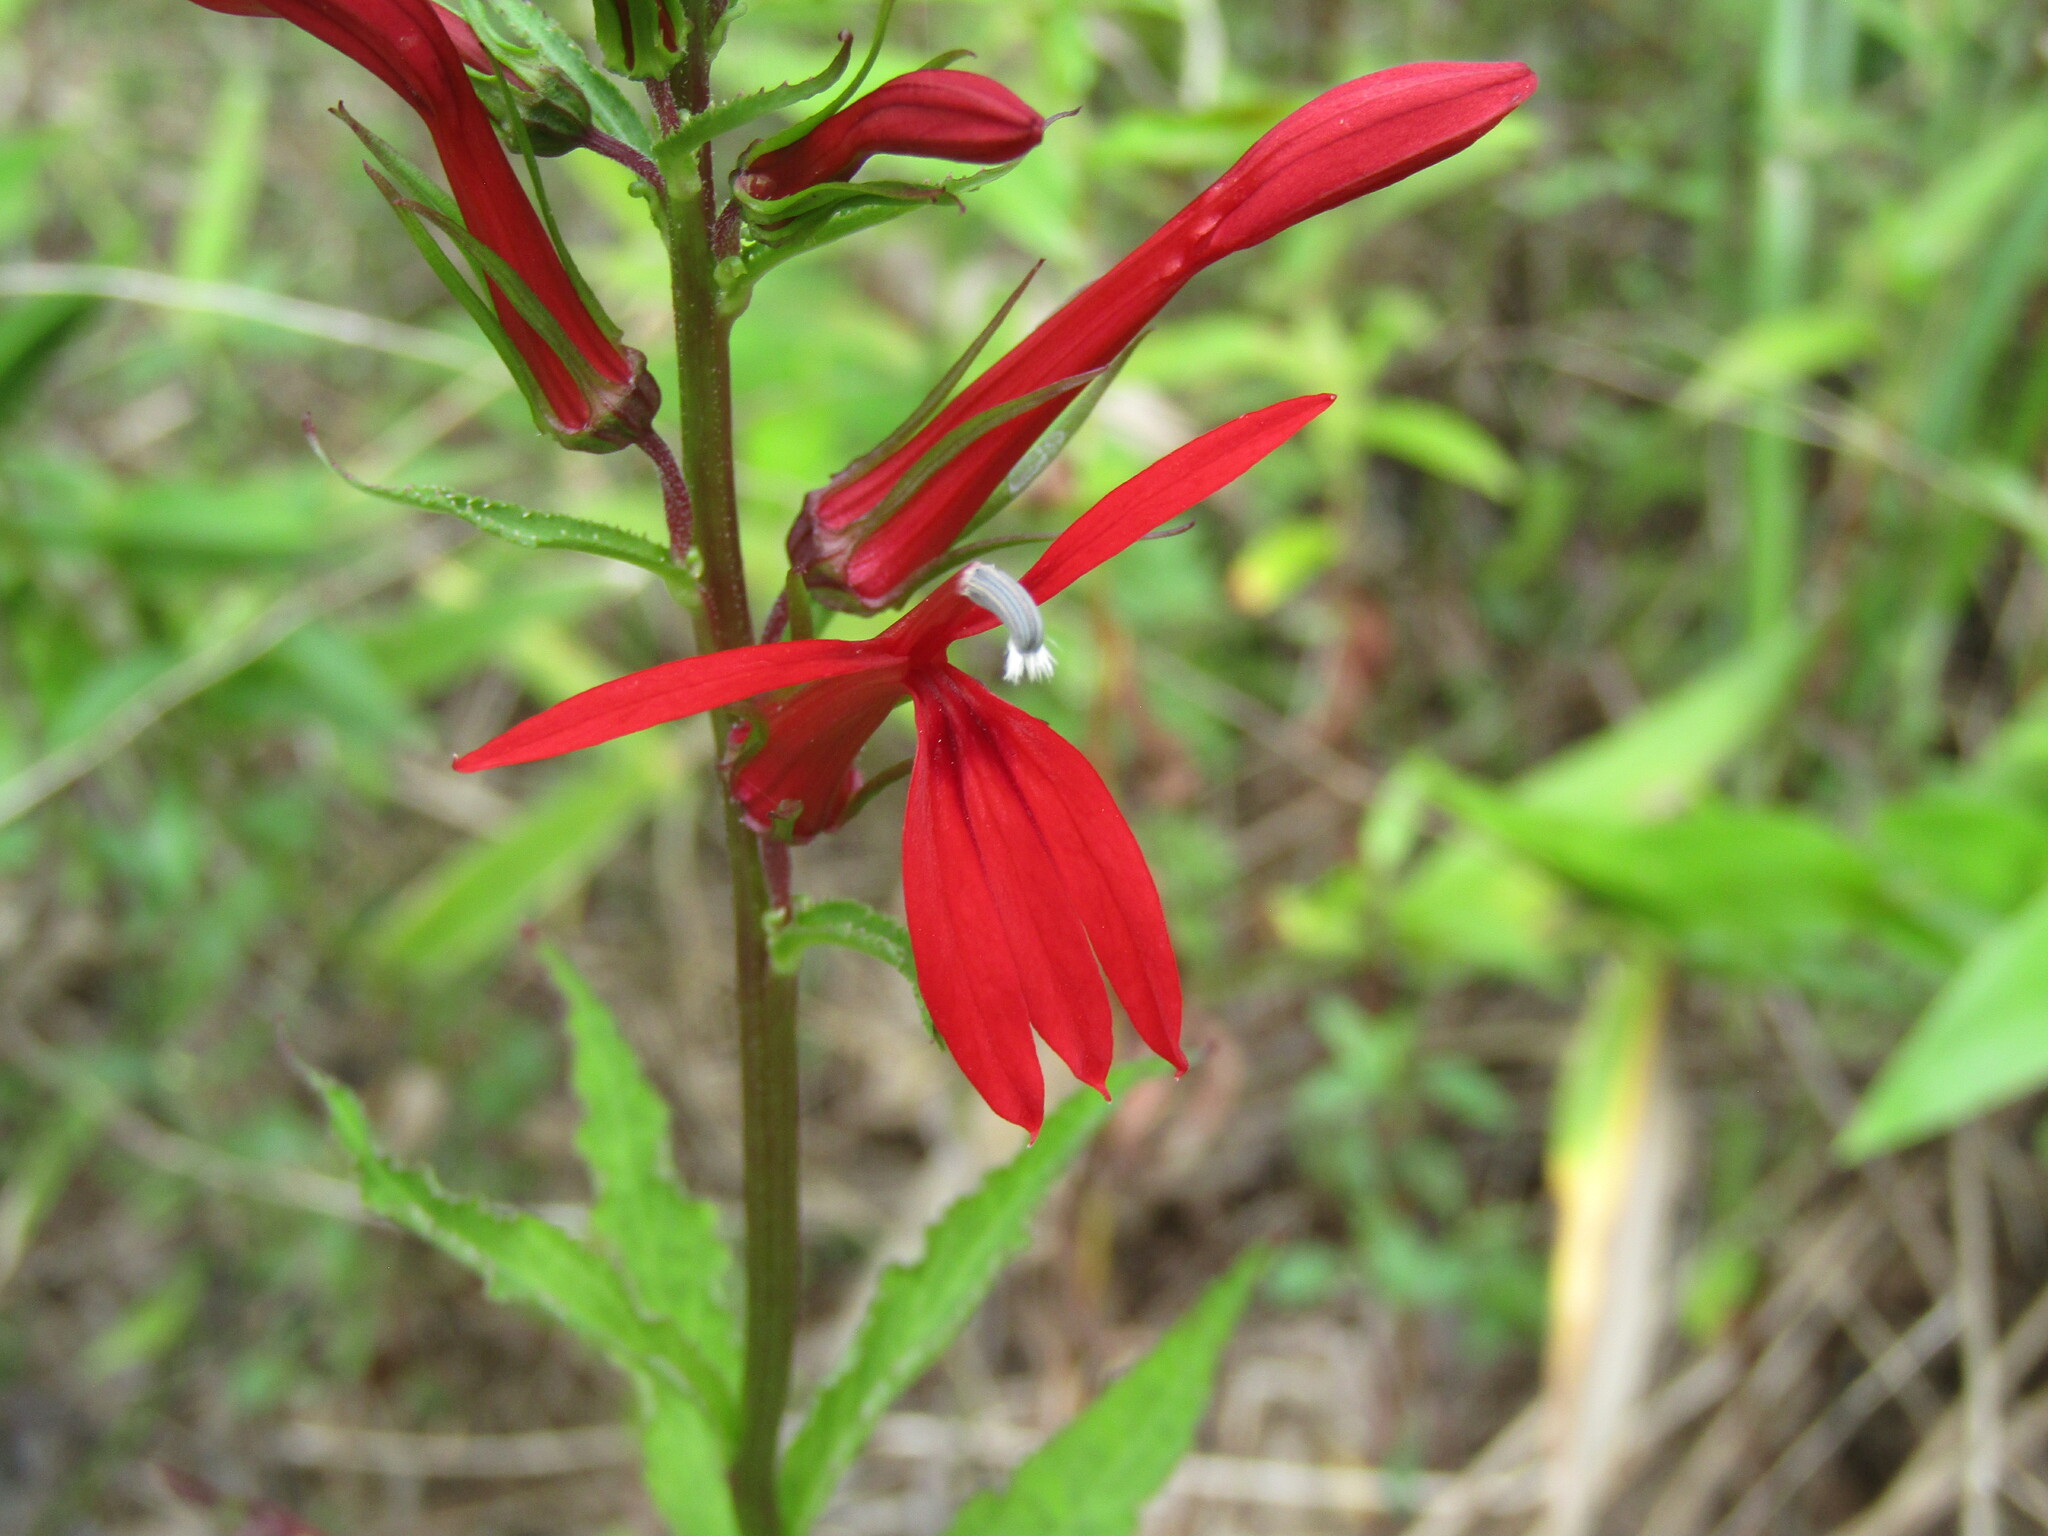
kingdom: Plantae
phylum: Tracheophyta
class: Magnoliopsida
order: Asterales
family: Campanulaceae
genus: Lobelia
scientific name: Lobelia cardinalis
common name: Cardinal flower
